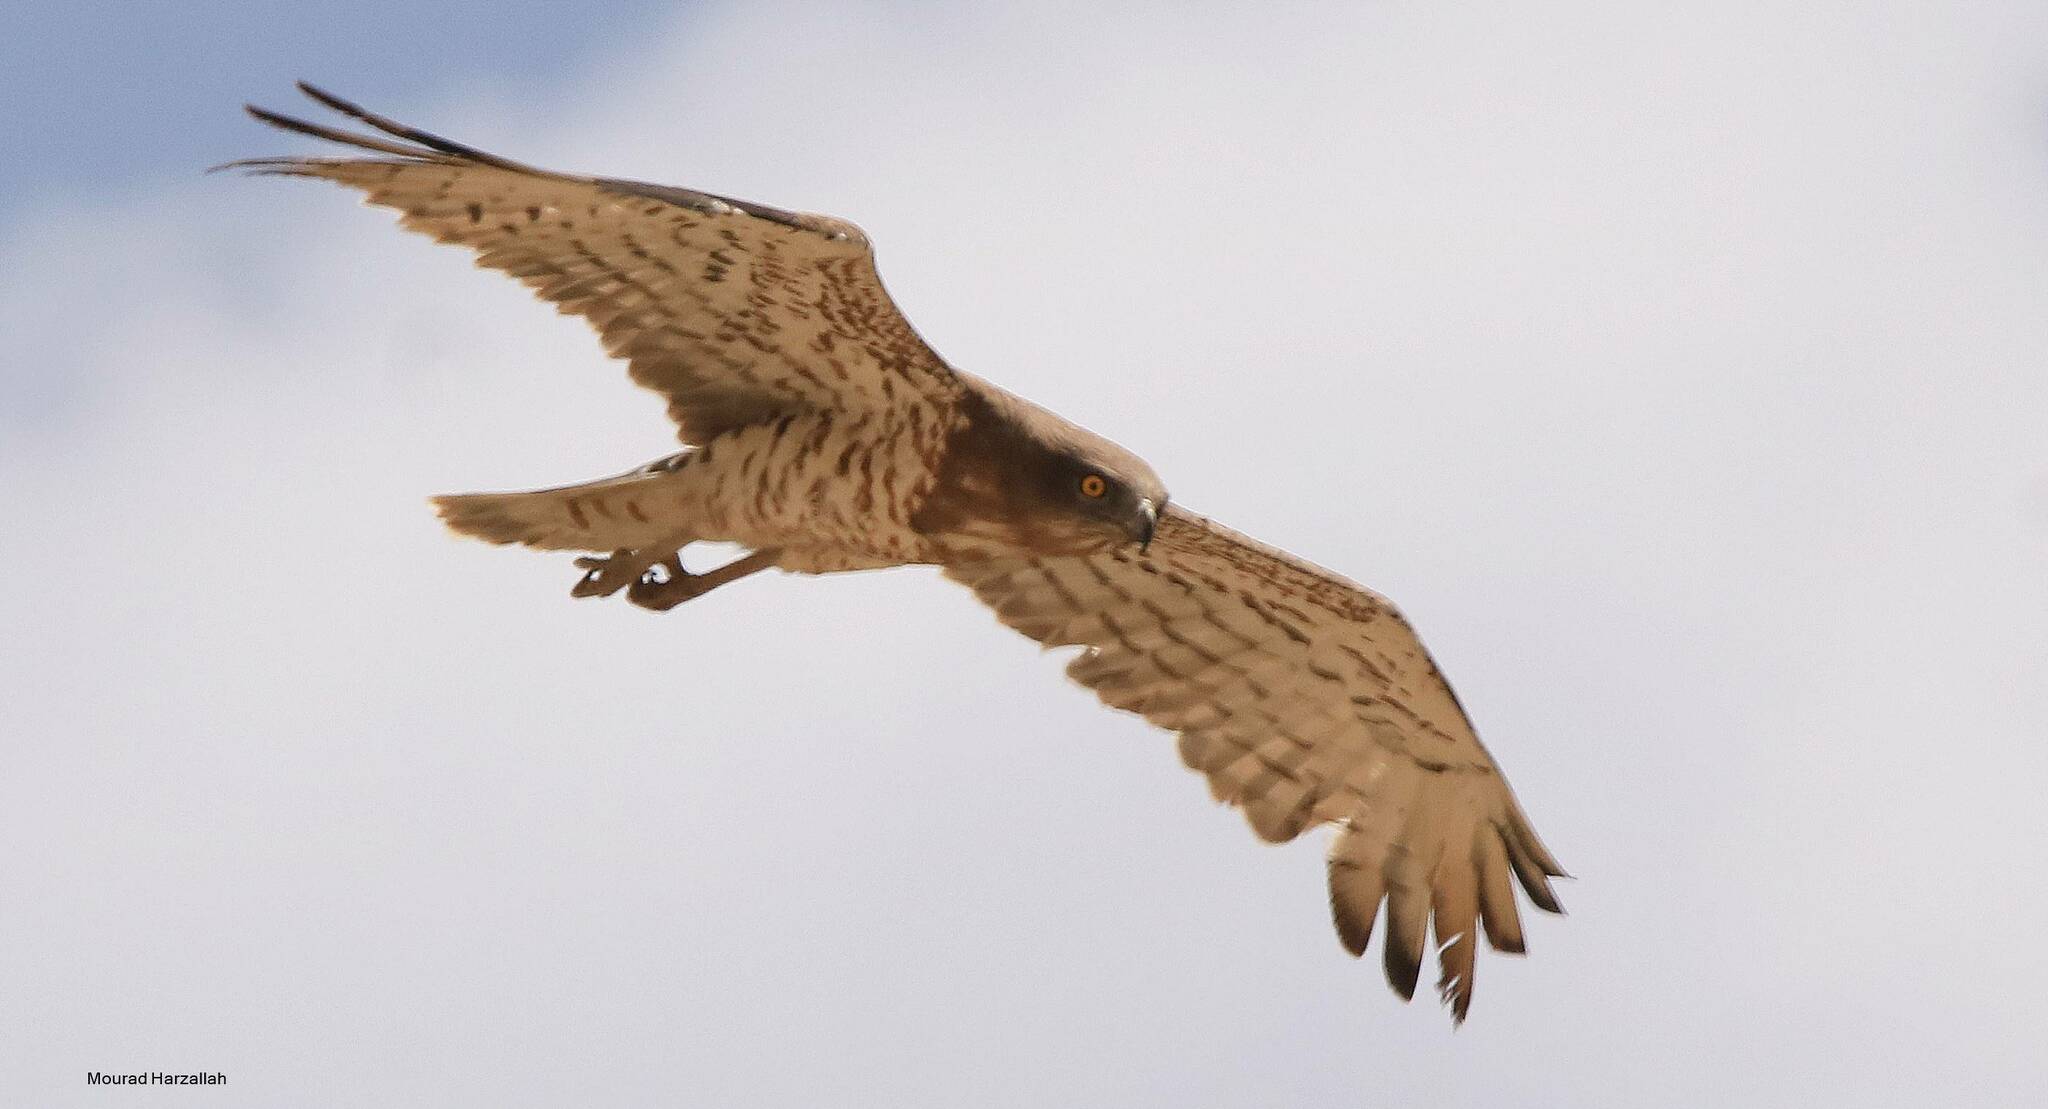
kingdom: Animalia
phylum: Chordata
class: Aves
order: Accipitriformes
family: Accipitridae
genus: Circaetus
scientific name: Circaetus gallicus
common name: Short-toed snake eagle
